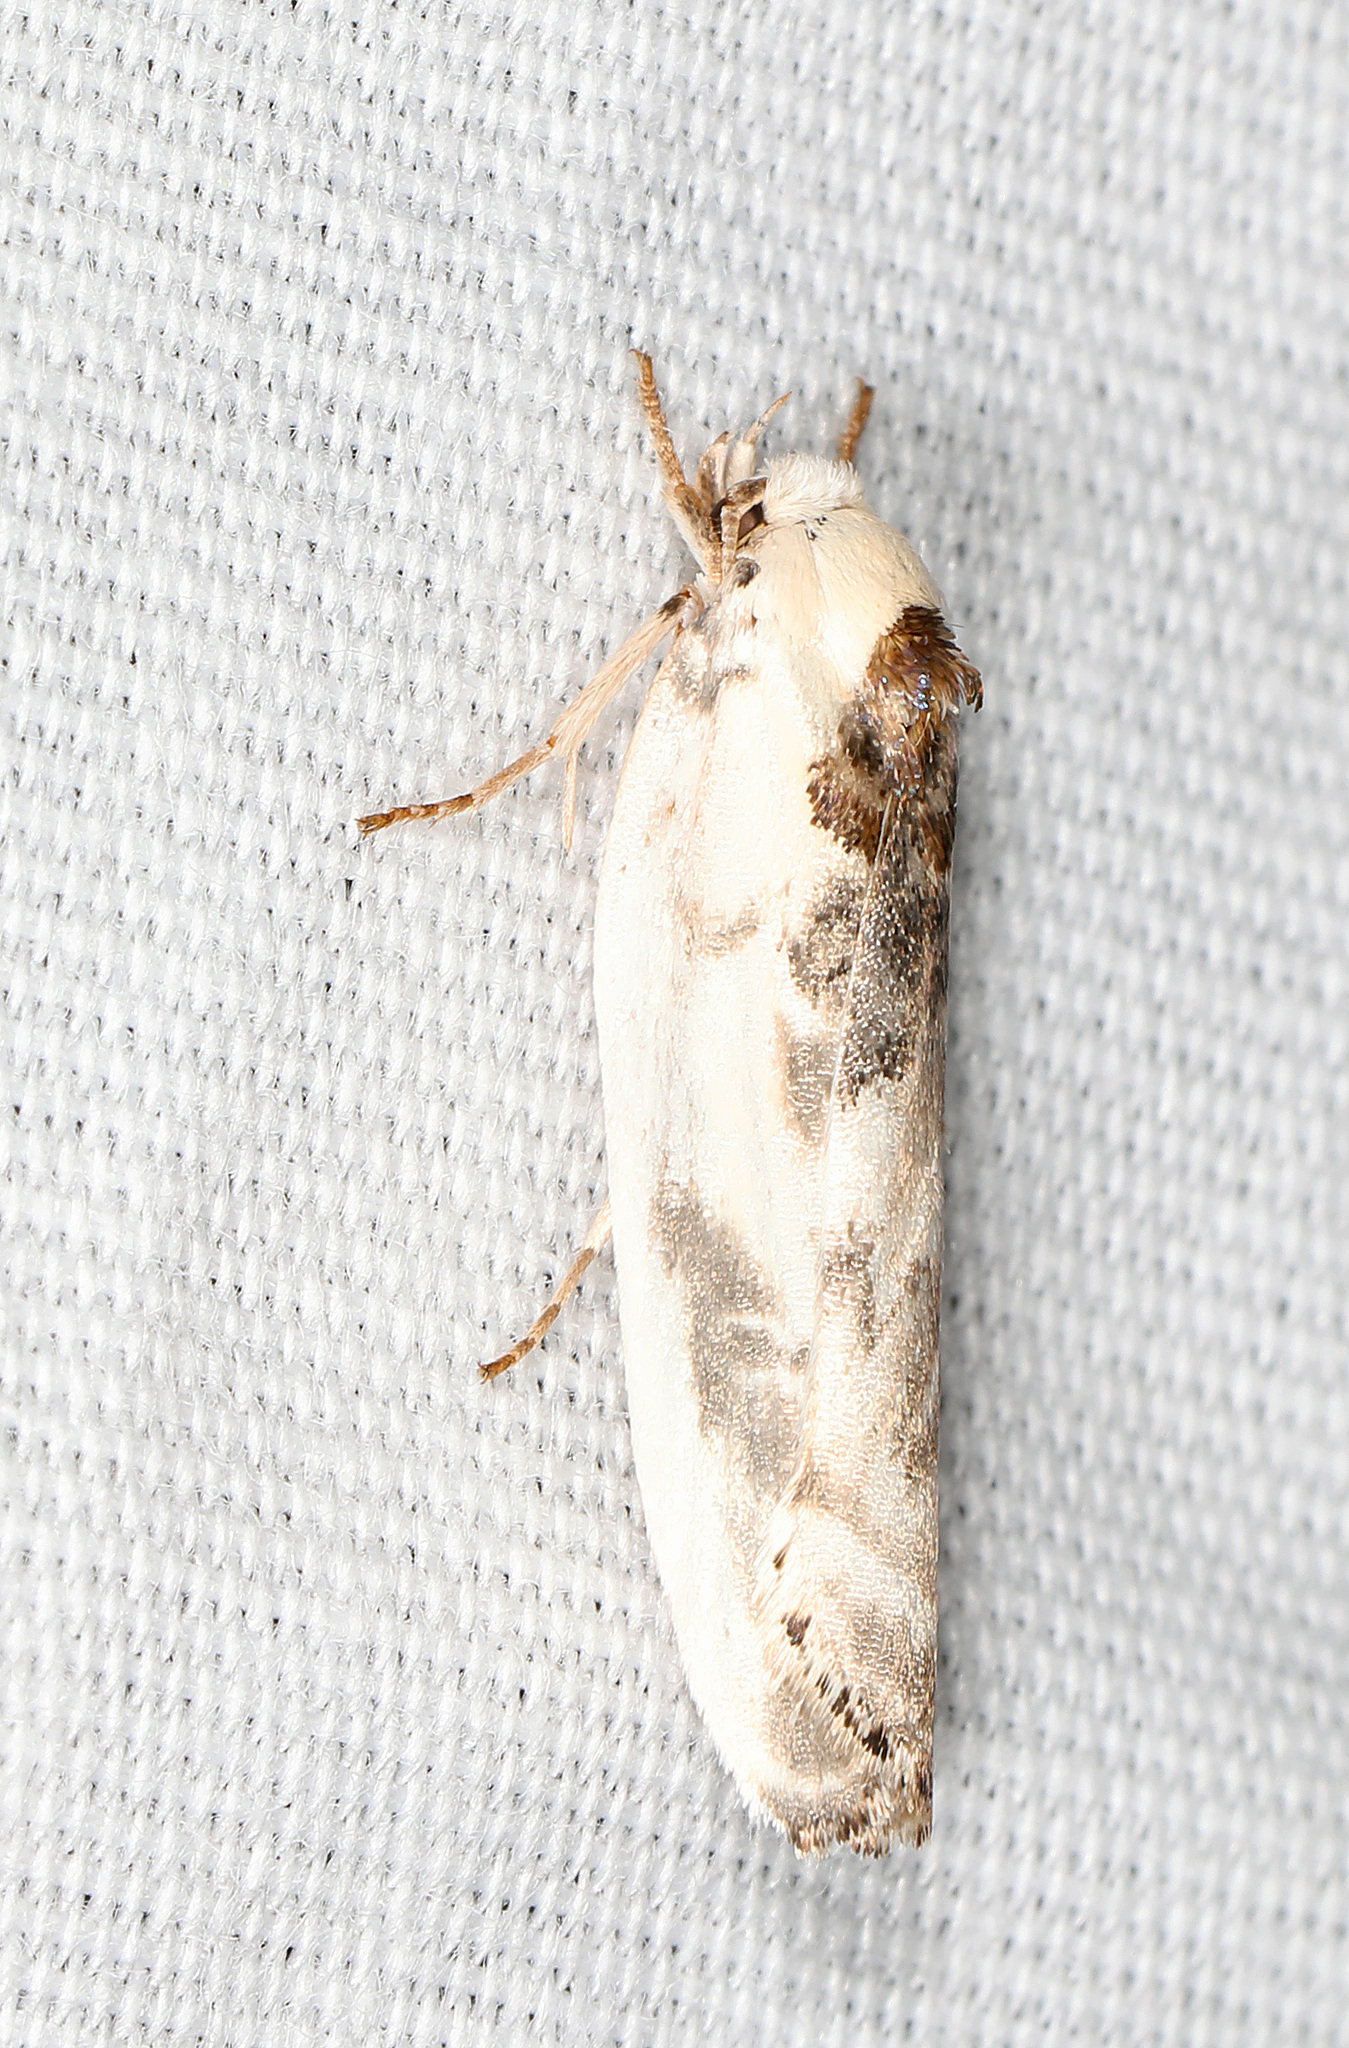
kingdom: Animalia
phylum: Arthropoda
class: Insecta
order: Lepidoptera
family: Depressariidae
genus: Antaeotricha
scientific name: Antaeotricha leucillana
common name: Pale gray bird-dropping moth
